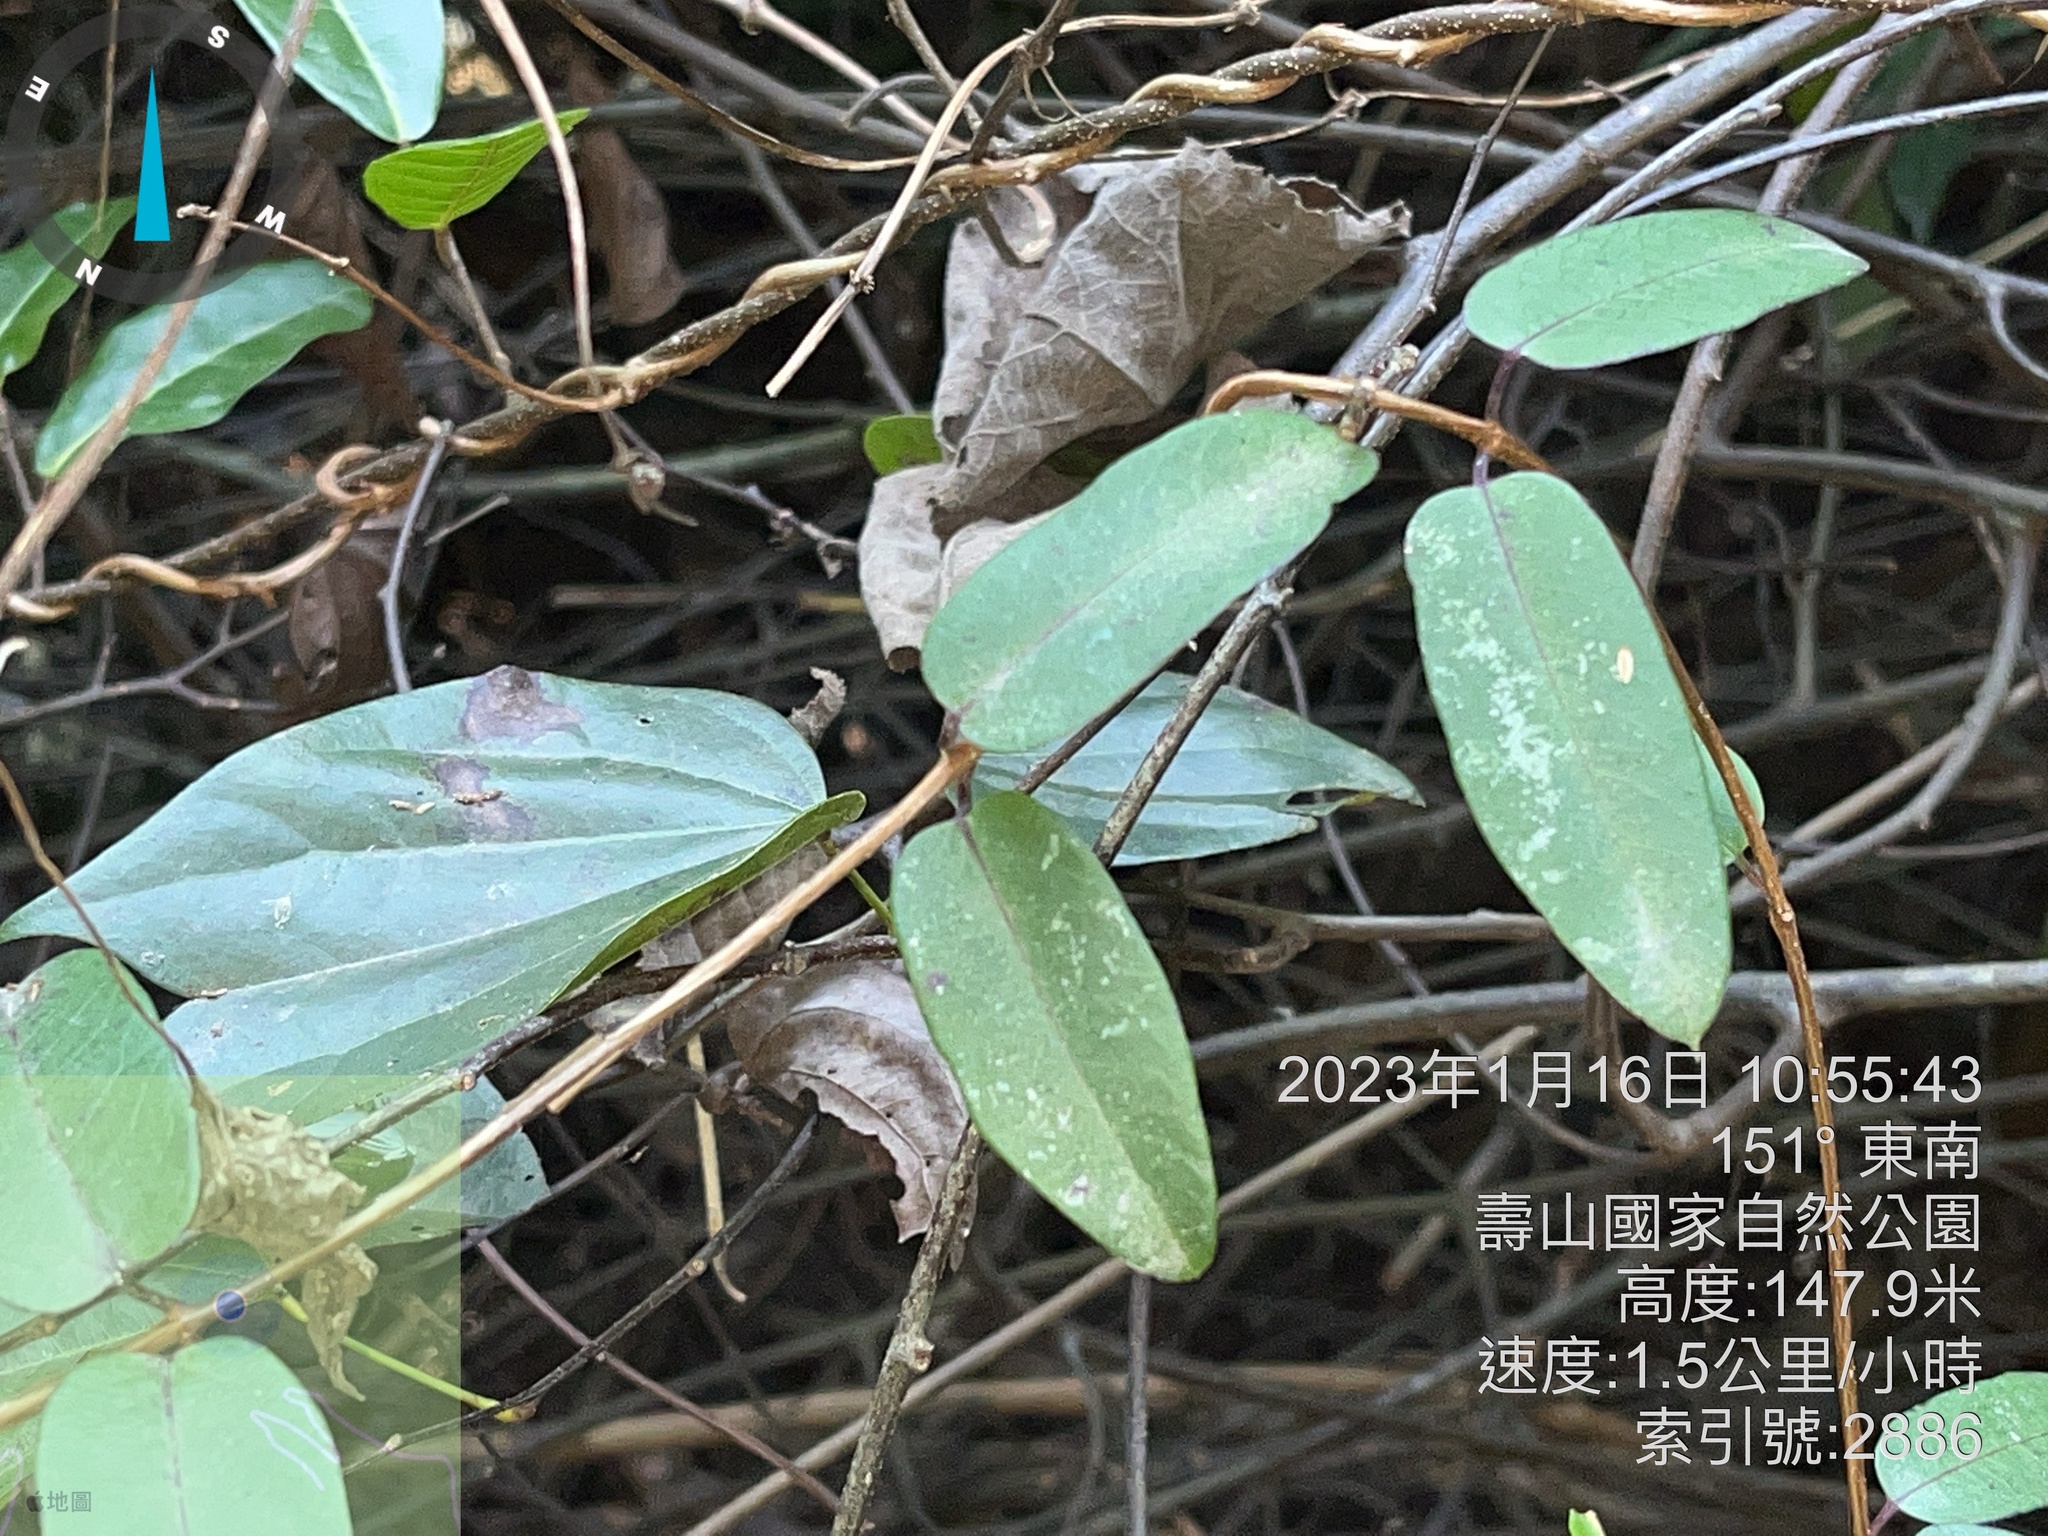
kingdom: Plantae
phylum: Tracheophyta
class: Magnoliopsida
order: Gentianales
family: Apocynaceae
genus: Cryptolepis
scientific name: Cryptolepis sinensis
